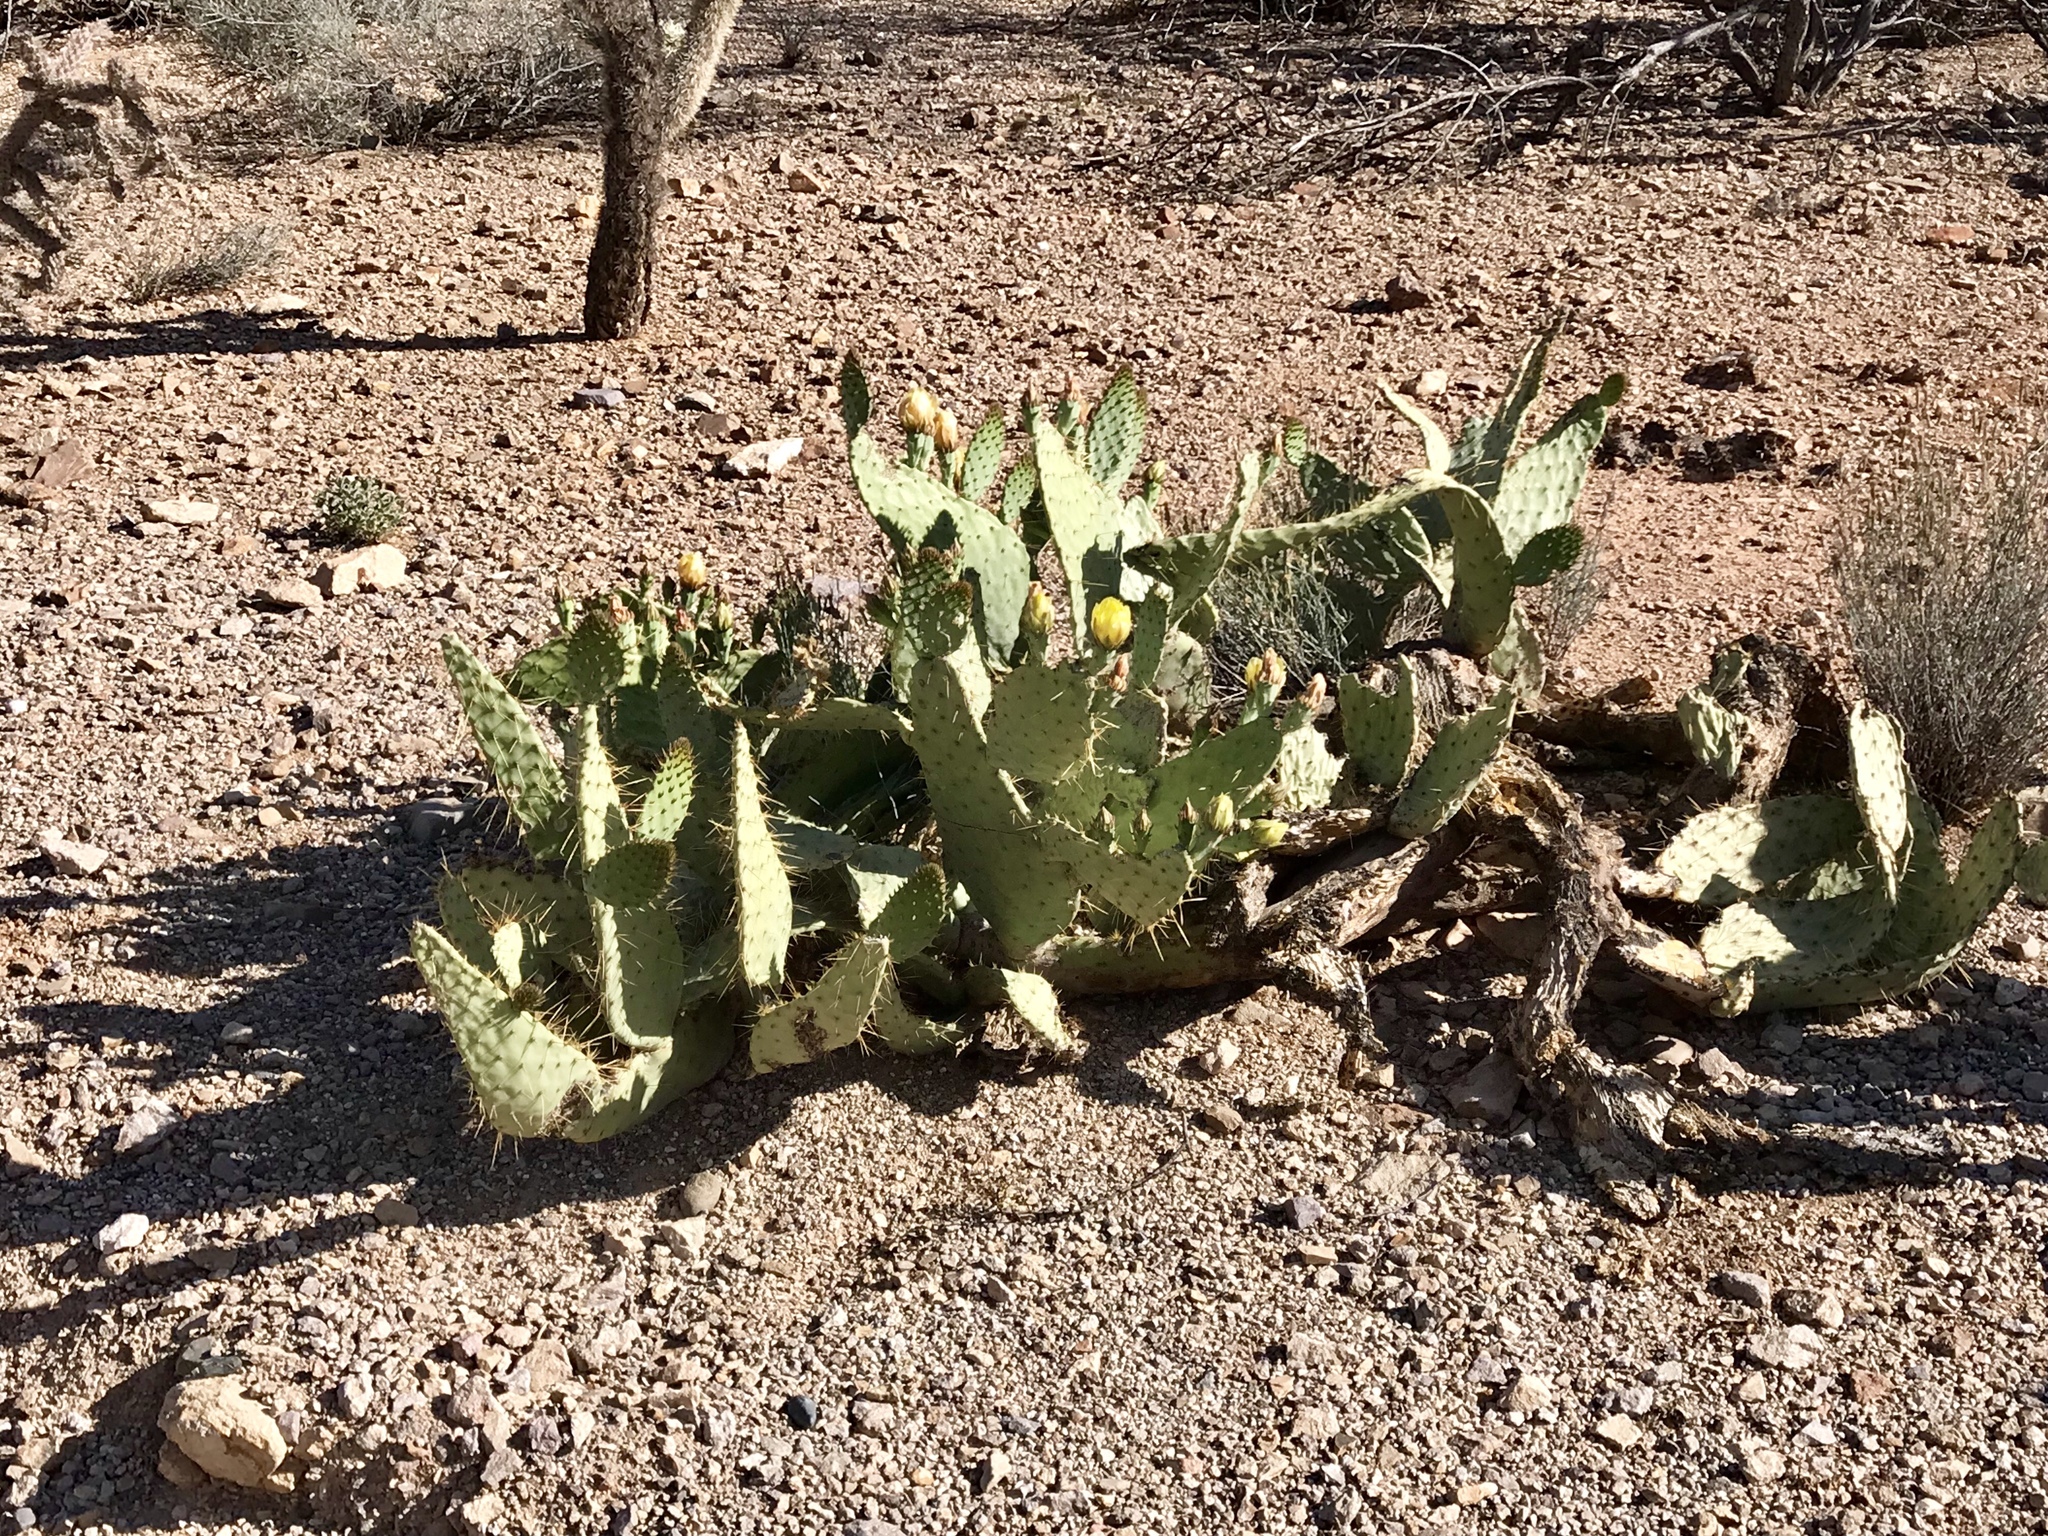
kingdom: Plantae
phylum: Tracheophyta
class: Magnoliopsida
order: Caryophyllales
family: Cactaceae
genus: Opuntia
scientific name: Opuntia engelmannii
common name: Cactus-apple
